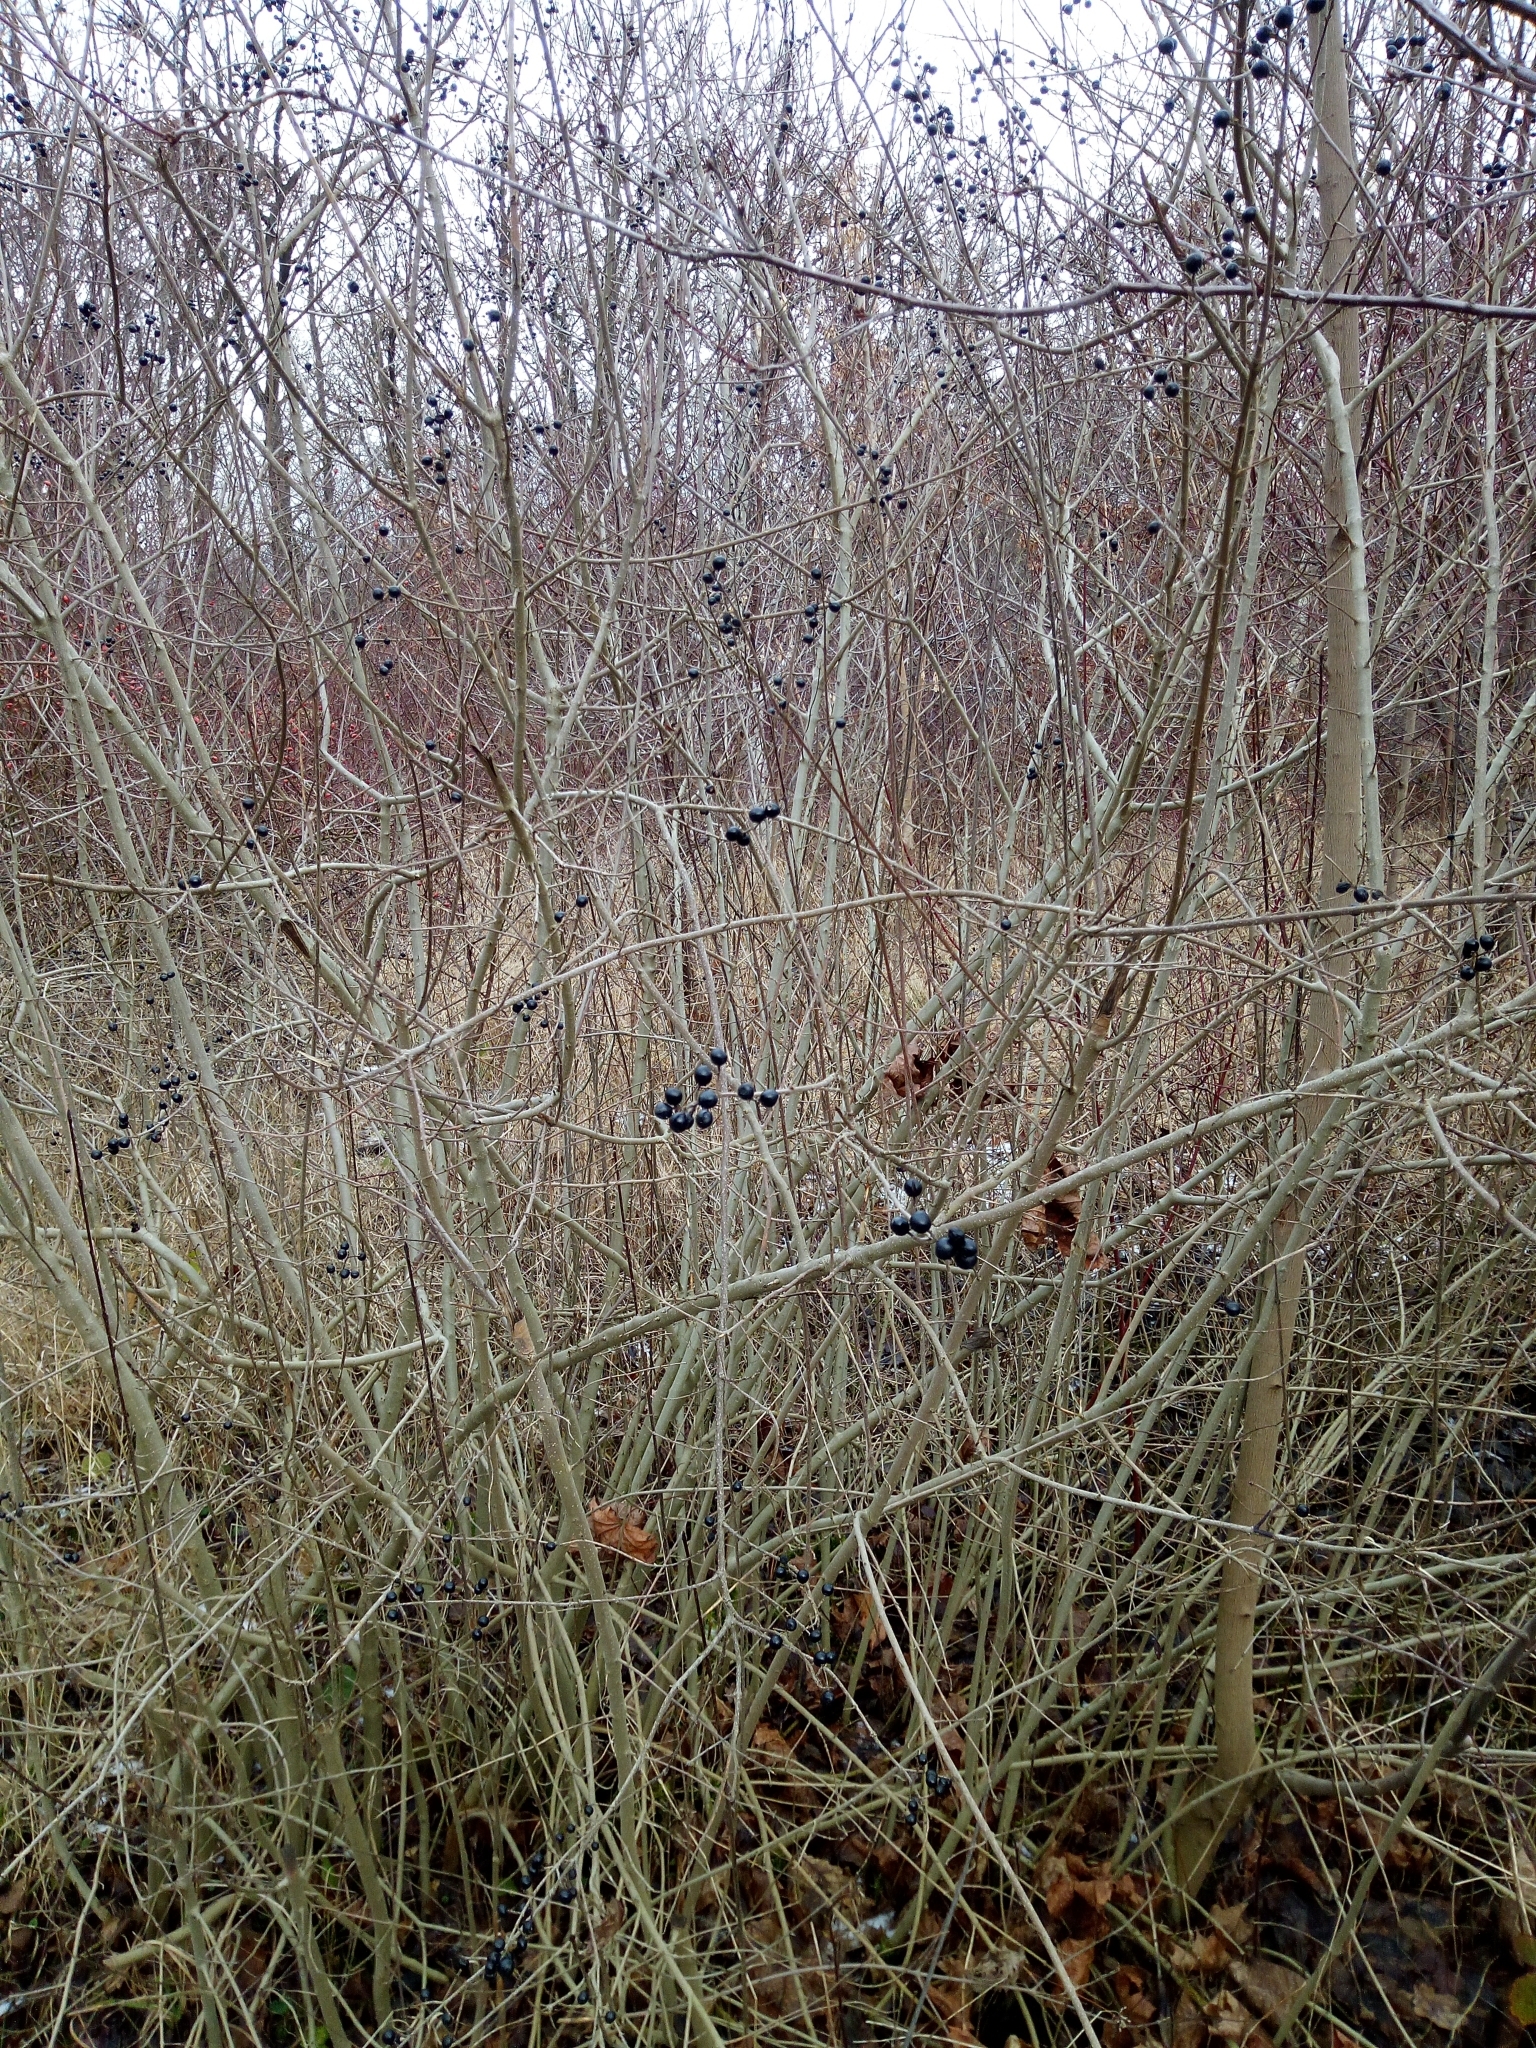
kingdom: Plantae
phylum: Tracheophyta
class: Magnoliopsida
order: Lamiales
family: Oleaceae
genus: Ligustrum
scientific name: Ligustrum vulgare
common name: Wild privet
